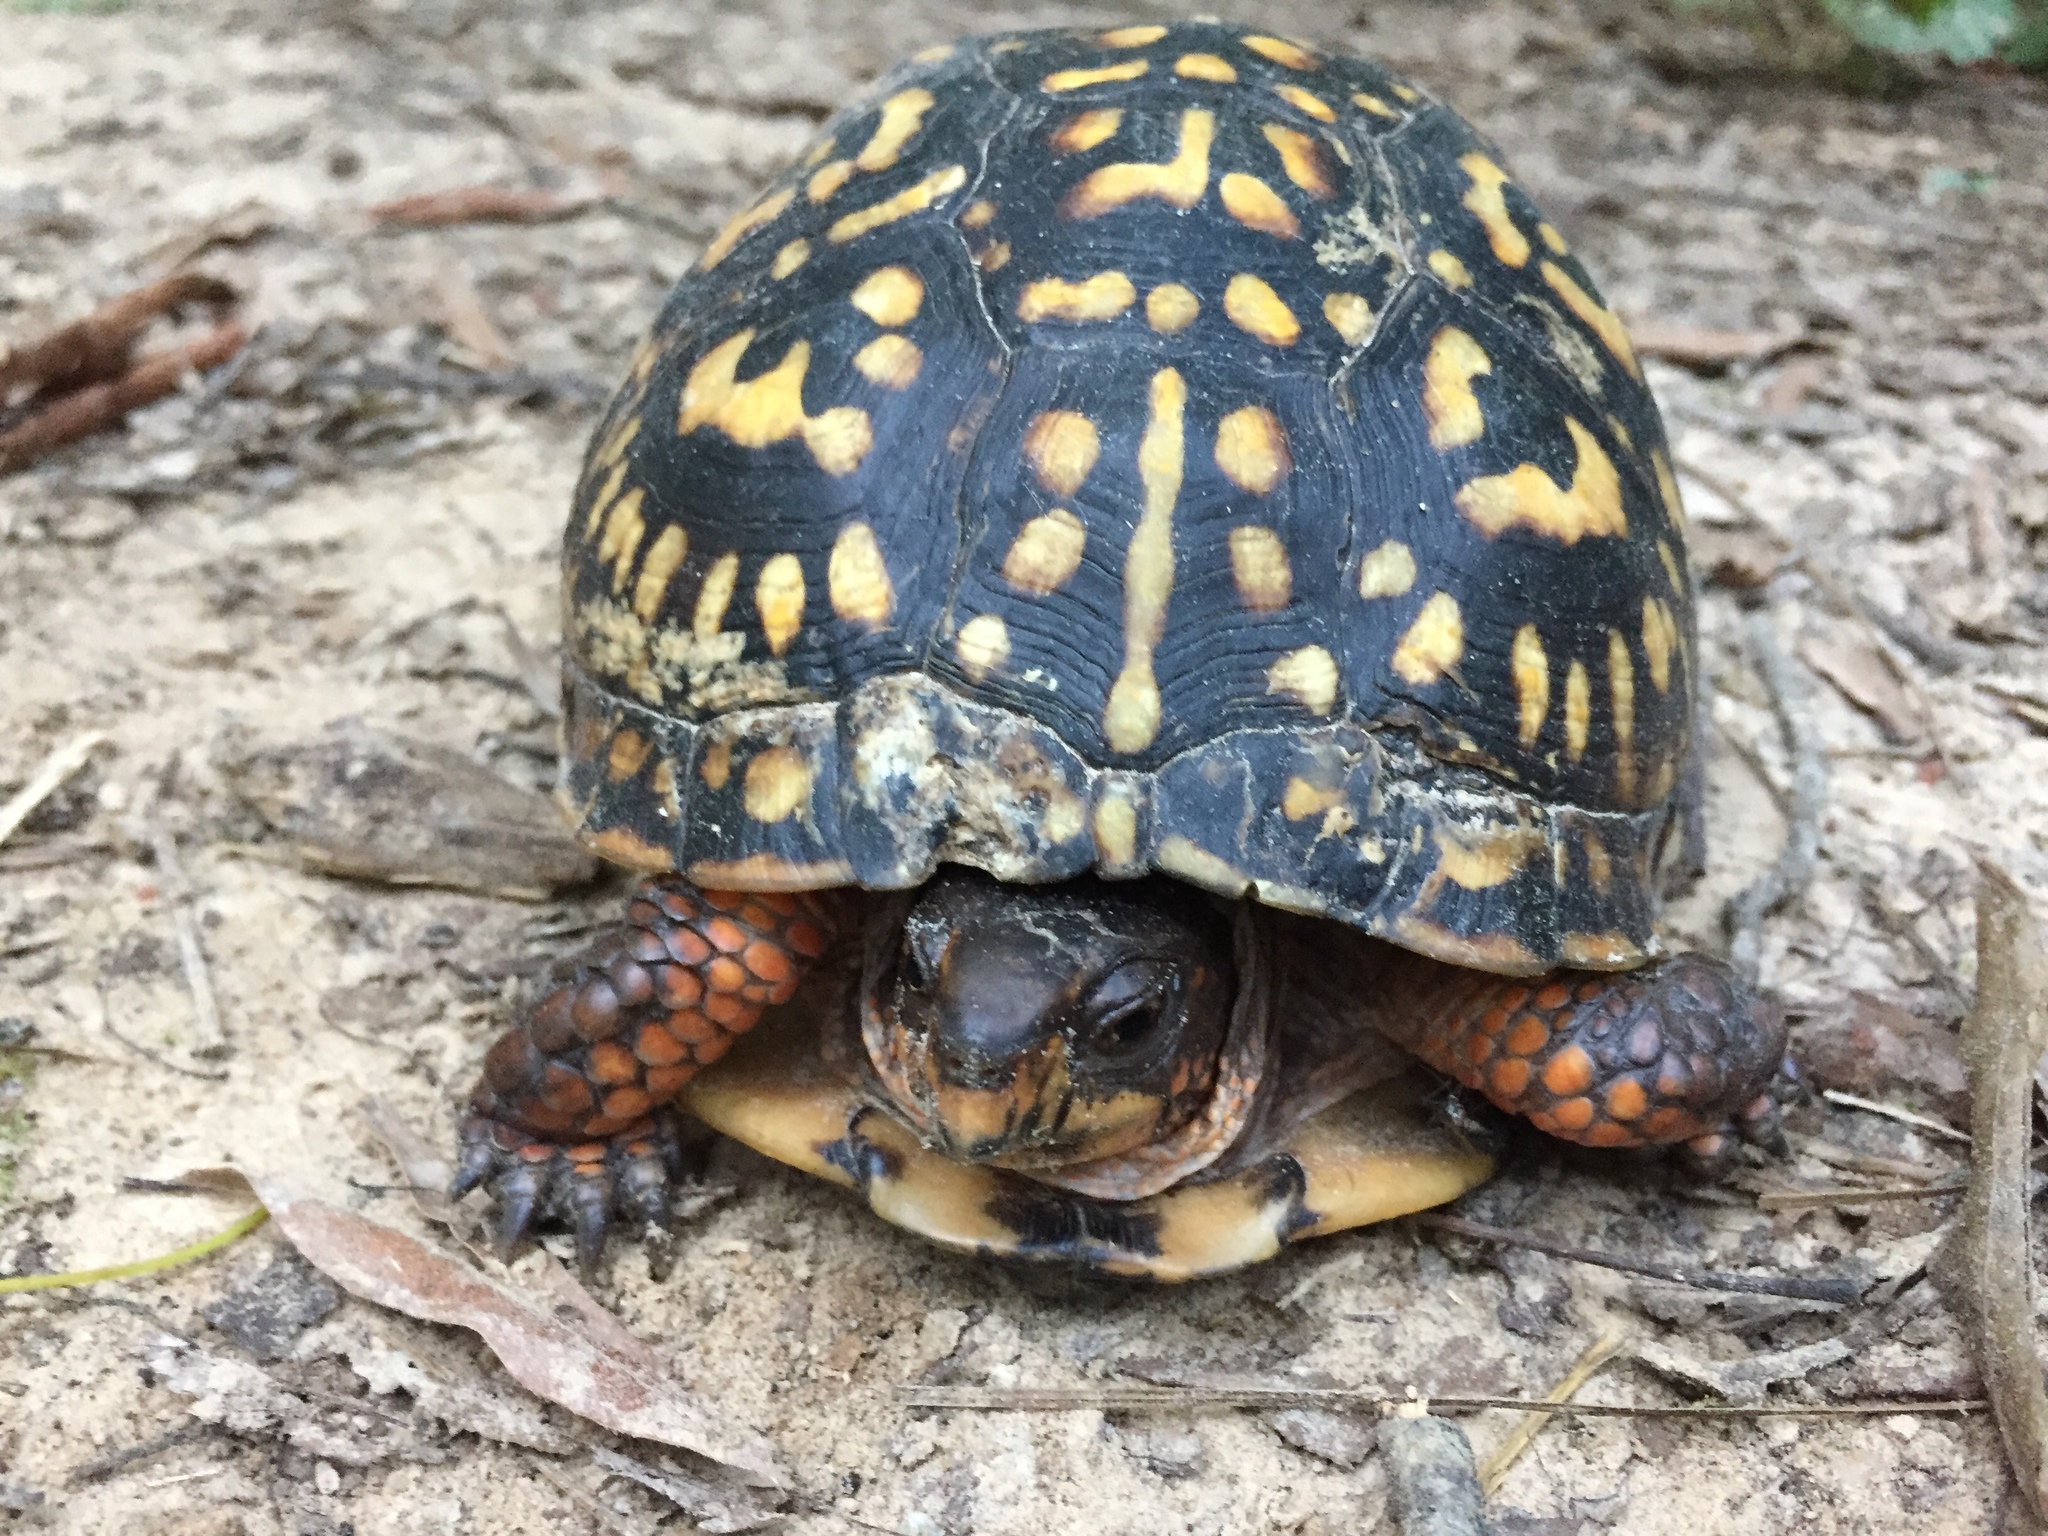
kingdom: Animalia
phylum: Chordata
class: Testudines
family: Emydidae
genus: Terrapene
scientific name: Terrapene carolina
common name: Common box turtle
